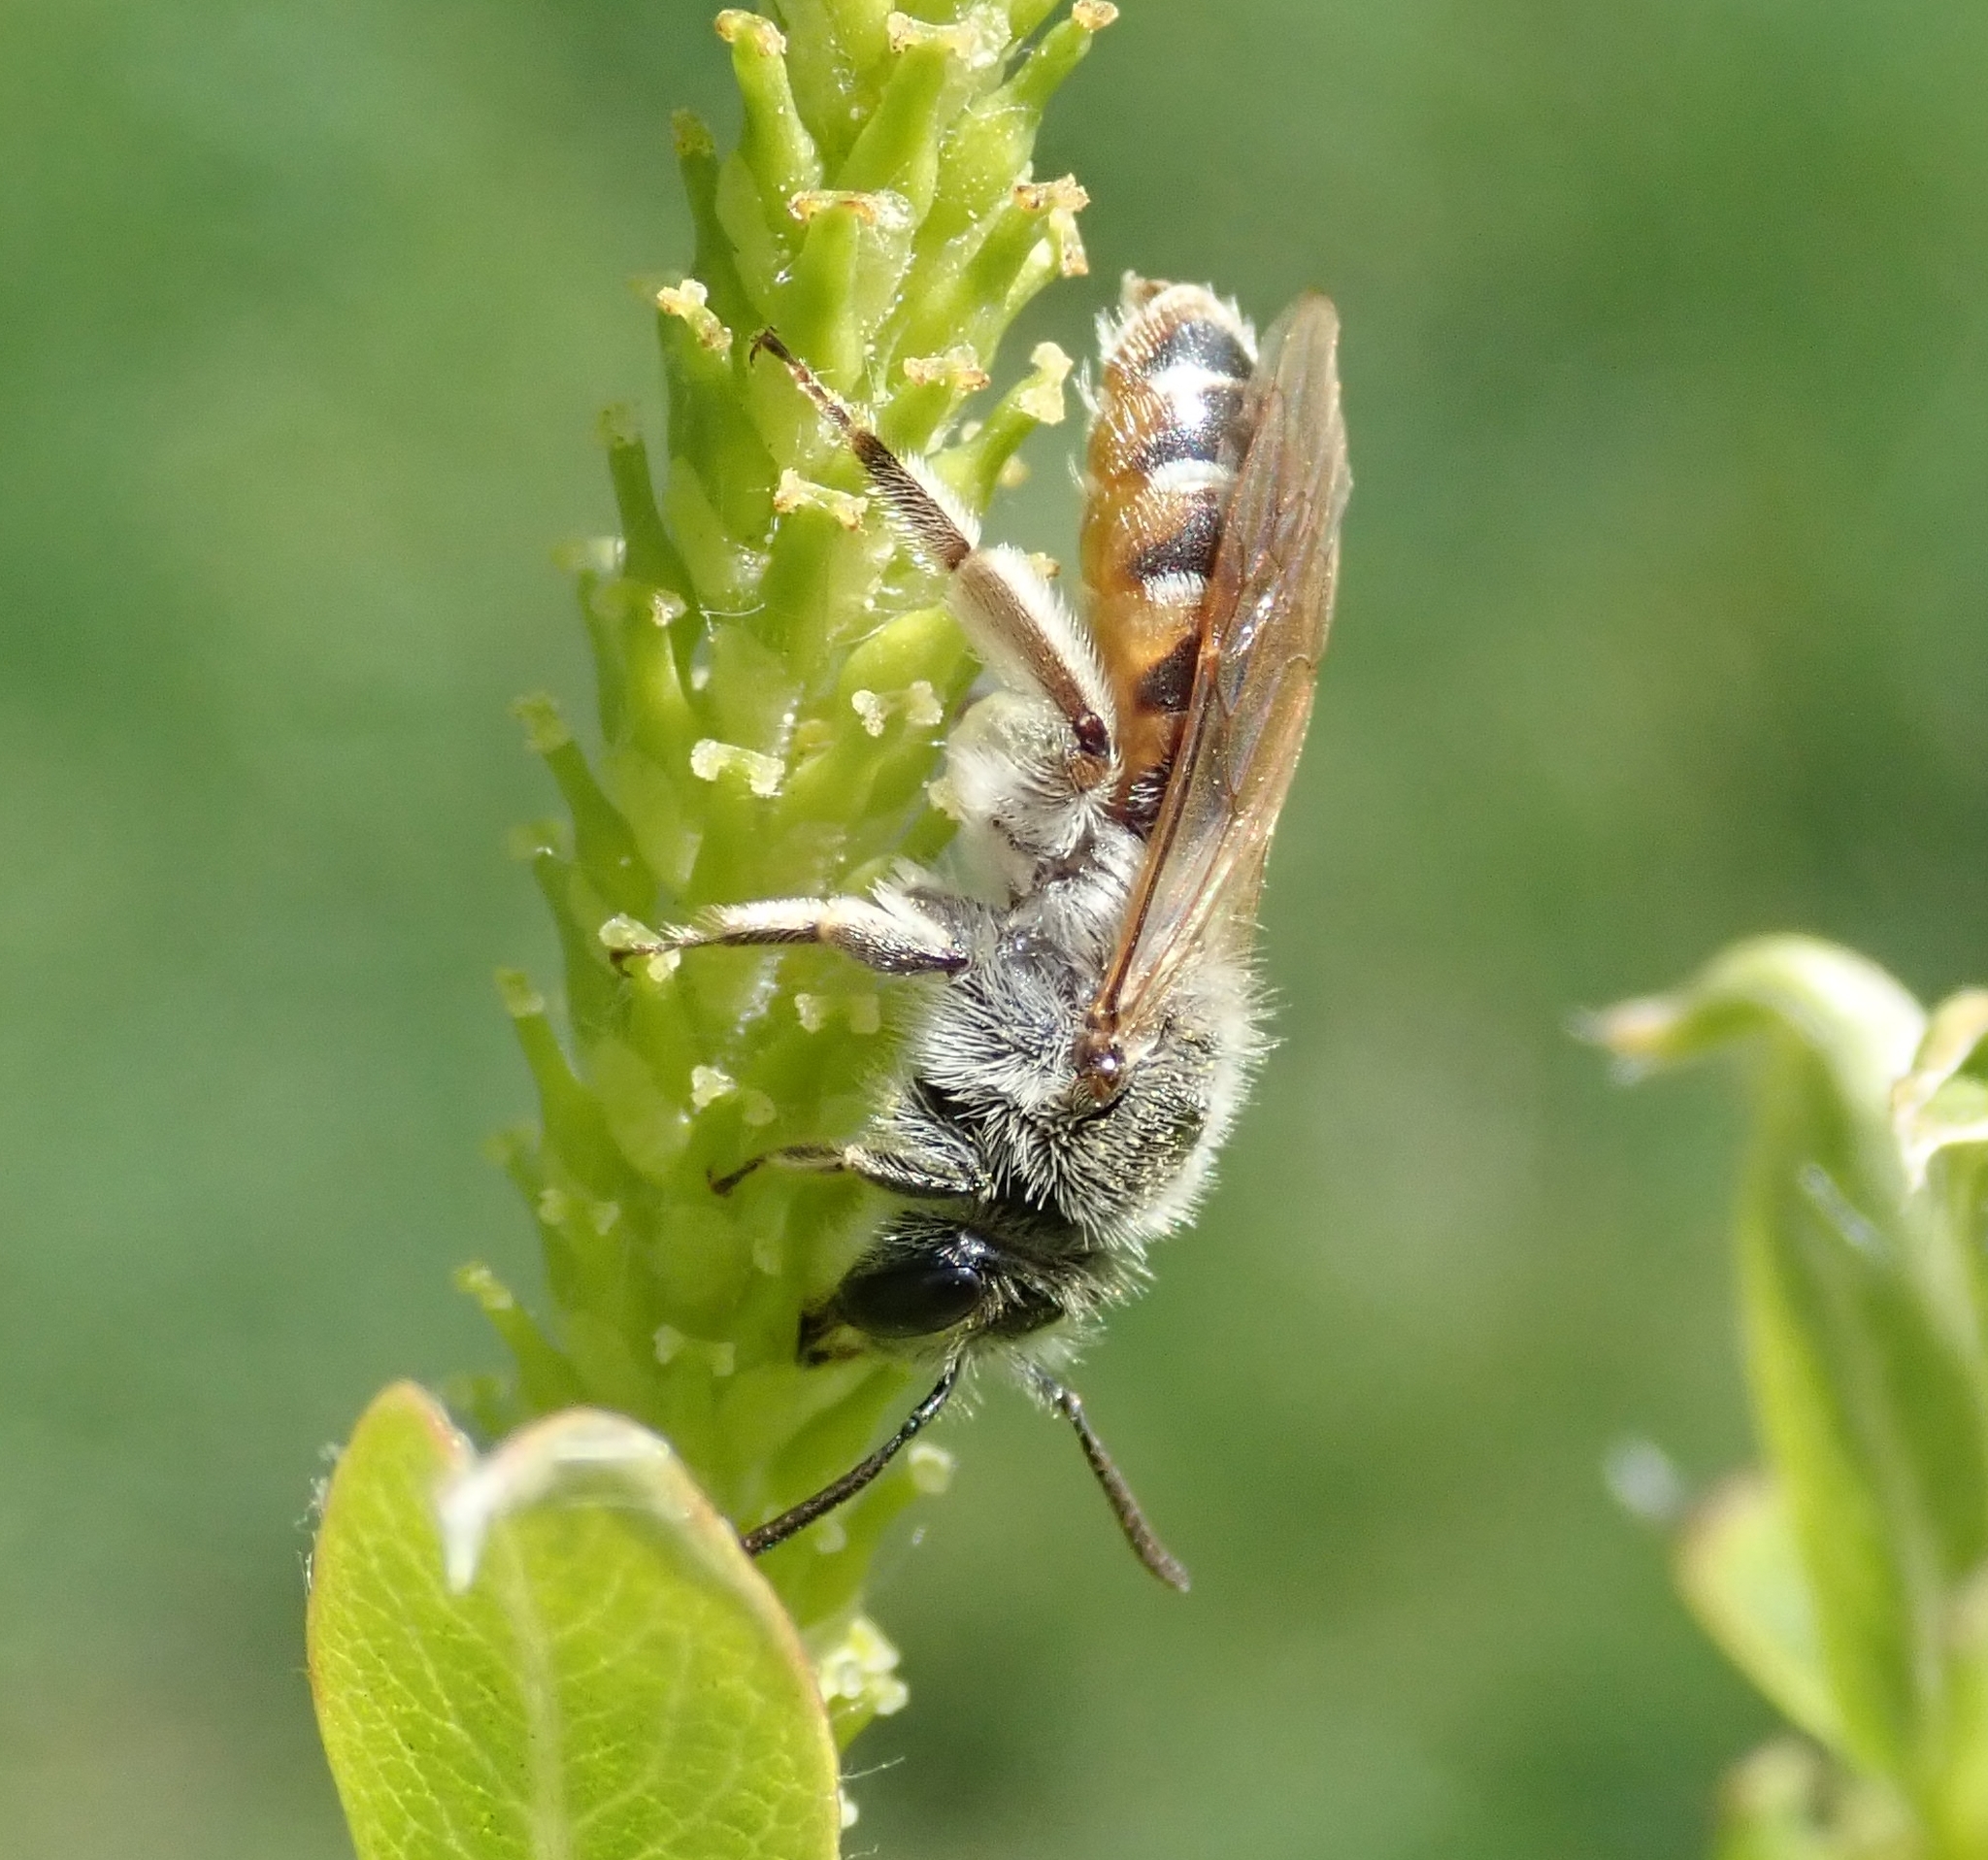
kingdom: Animalia
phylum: Arthropoda
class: Insecta
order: Hymenoptera
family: Andrenidae
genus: Andrena
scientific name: Andrena ventralis
